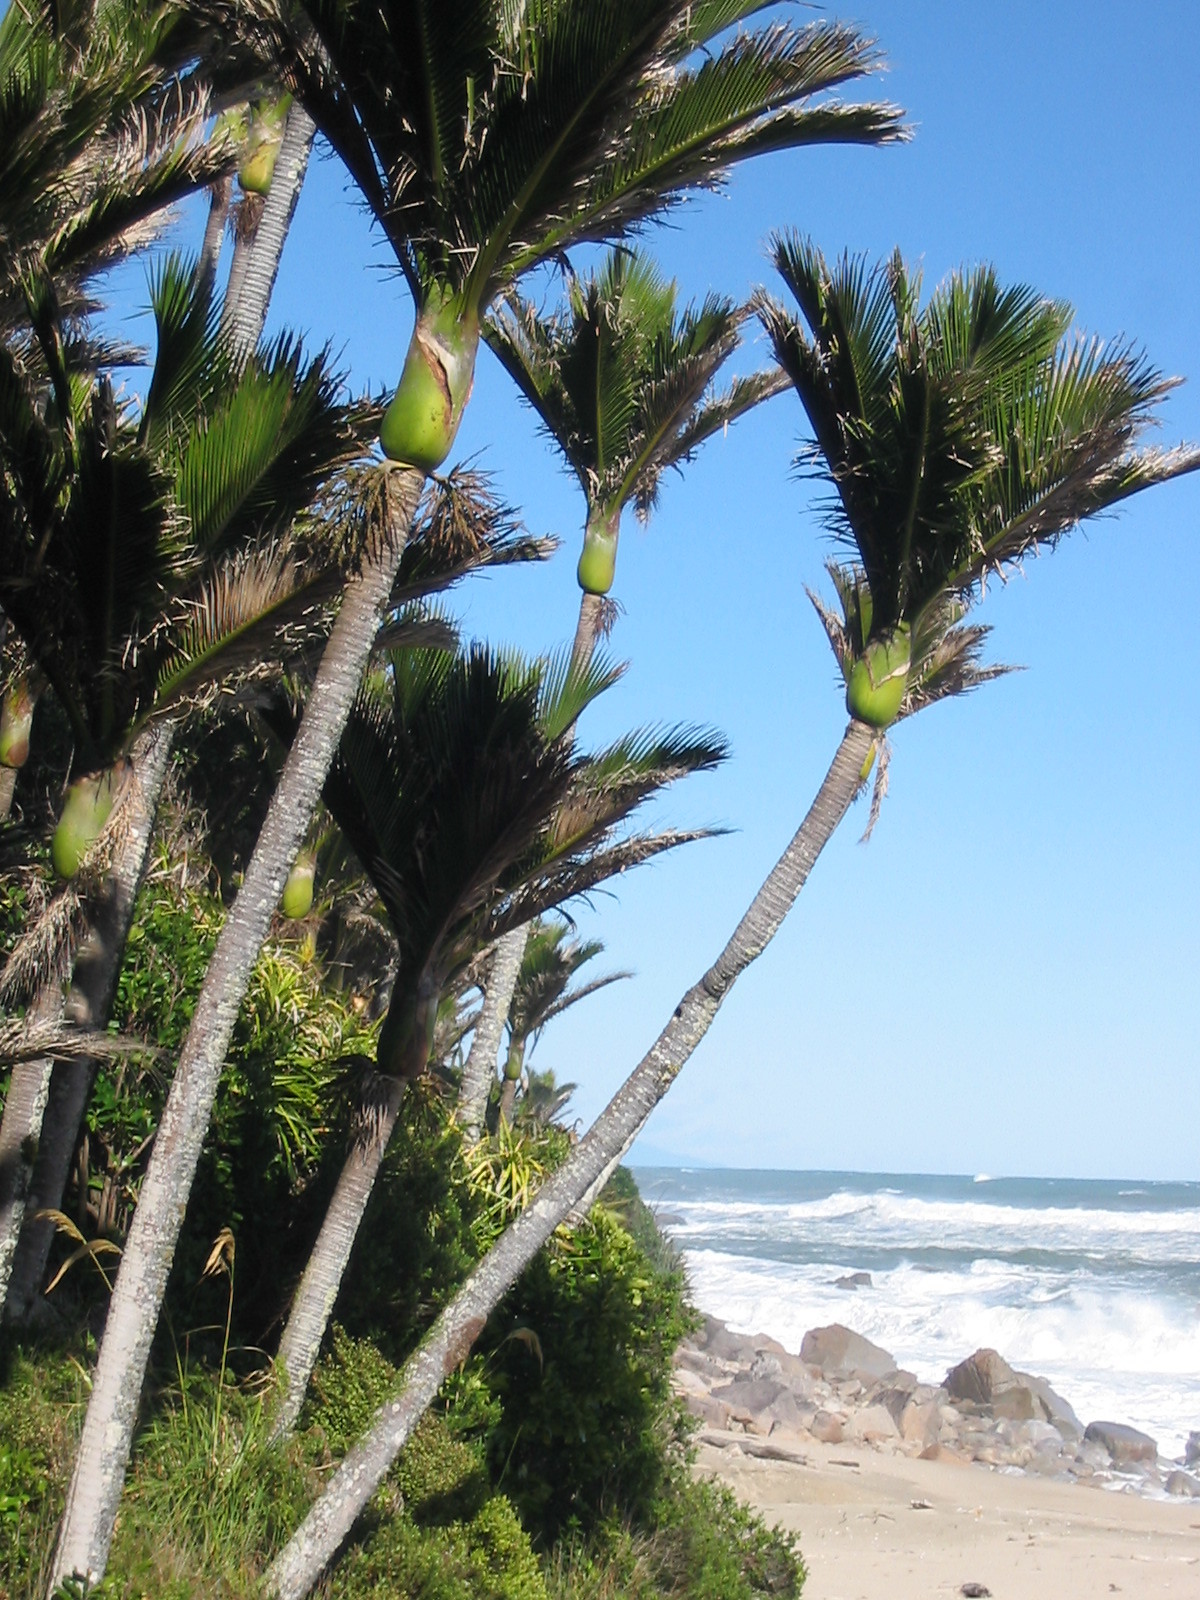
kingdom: Plantae
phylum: Tracheophyta
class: Liliopsida
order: Arecales
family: Arecaceae
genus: Rhopalostylis
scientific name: Rhopalostylis sapida
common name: Feather-duster palm
